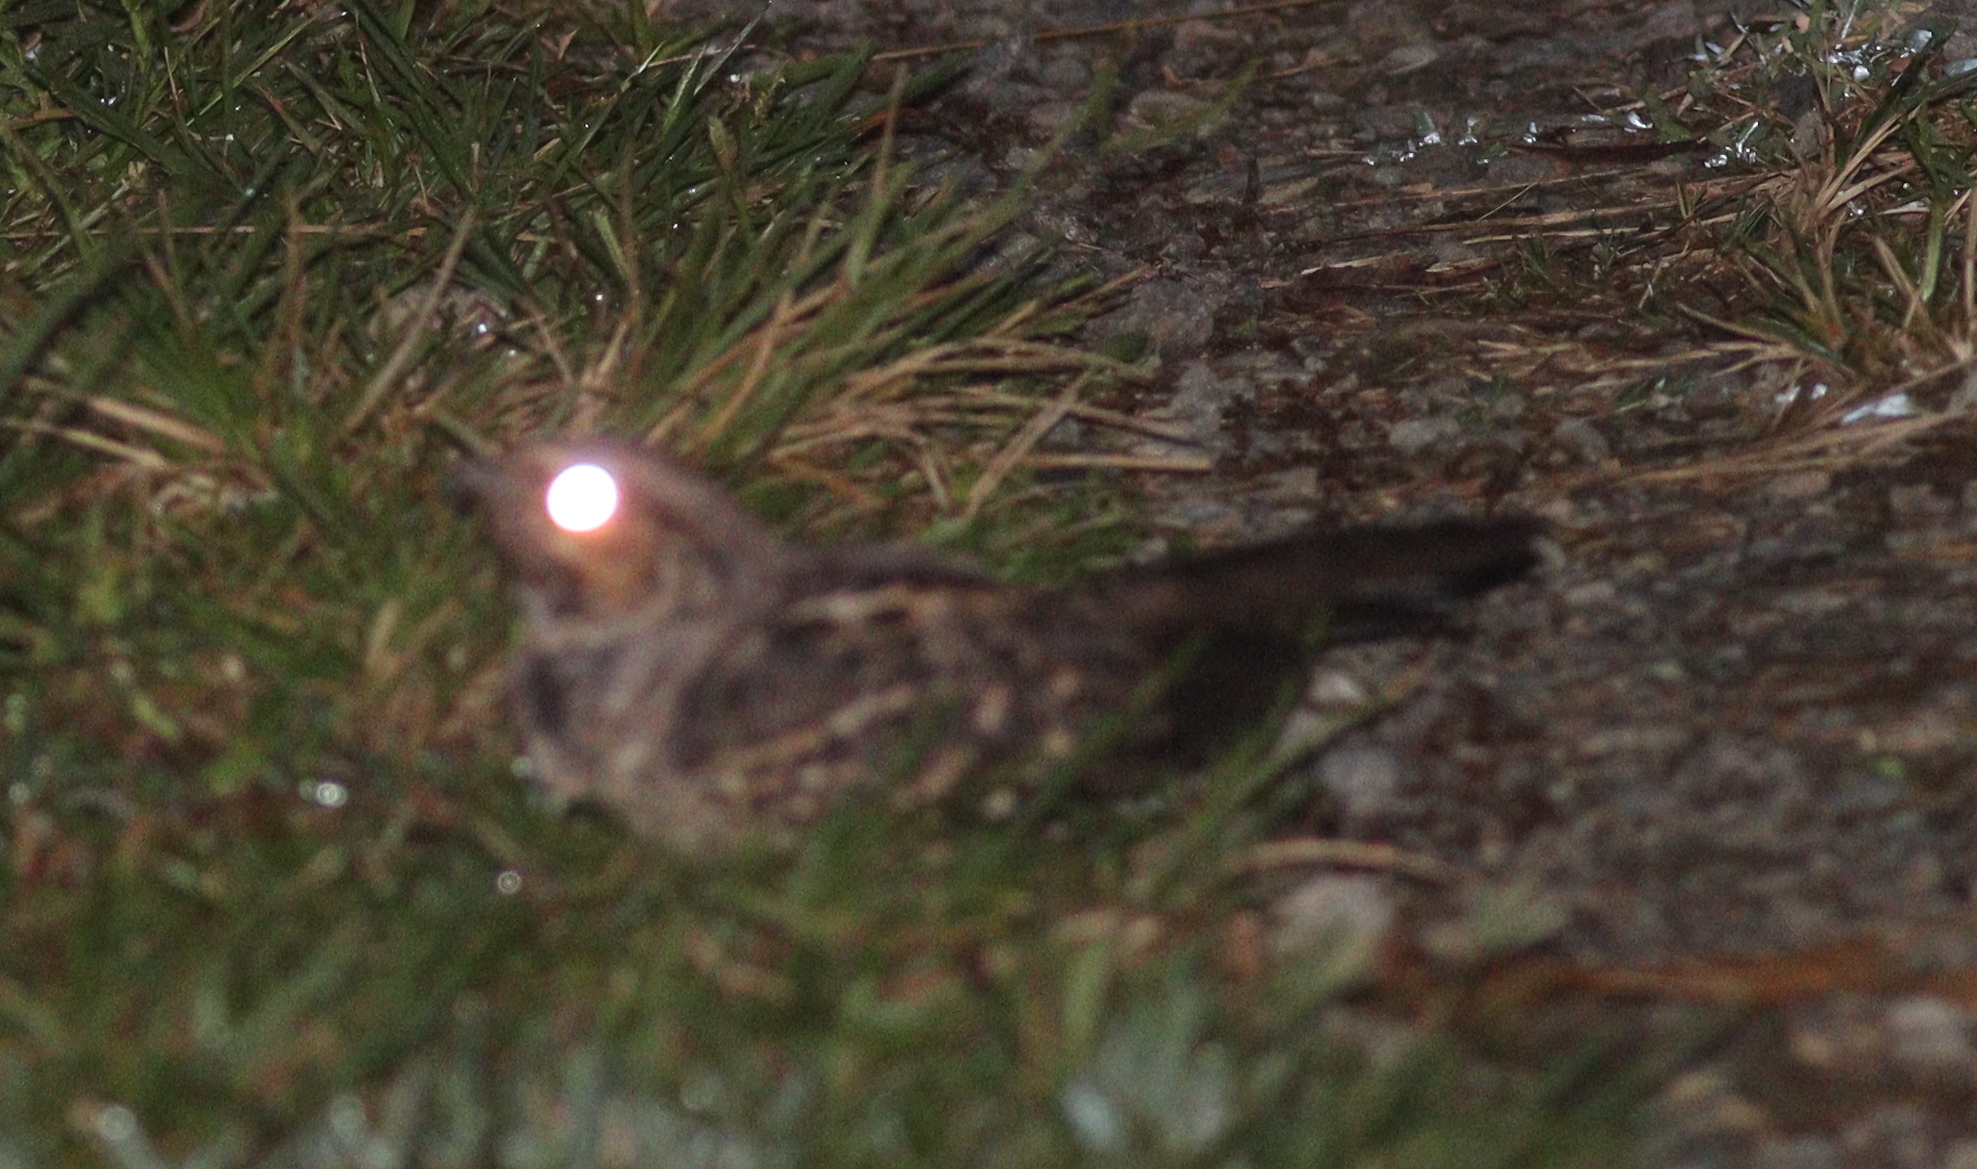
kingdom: Animalia
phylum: Chordata
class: Aves
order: Caprimulgiformes
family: Caprimulgidae
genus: Nyctidromus
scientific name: Nyctidromus albicollis
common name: Pauraque
